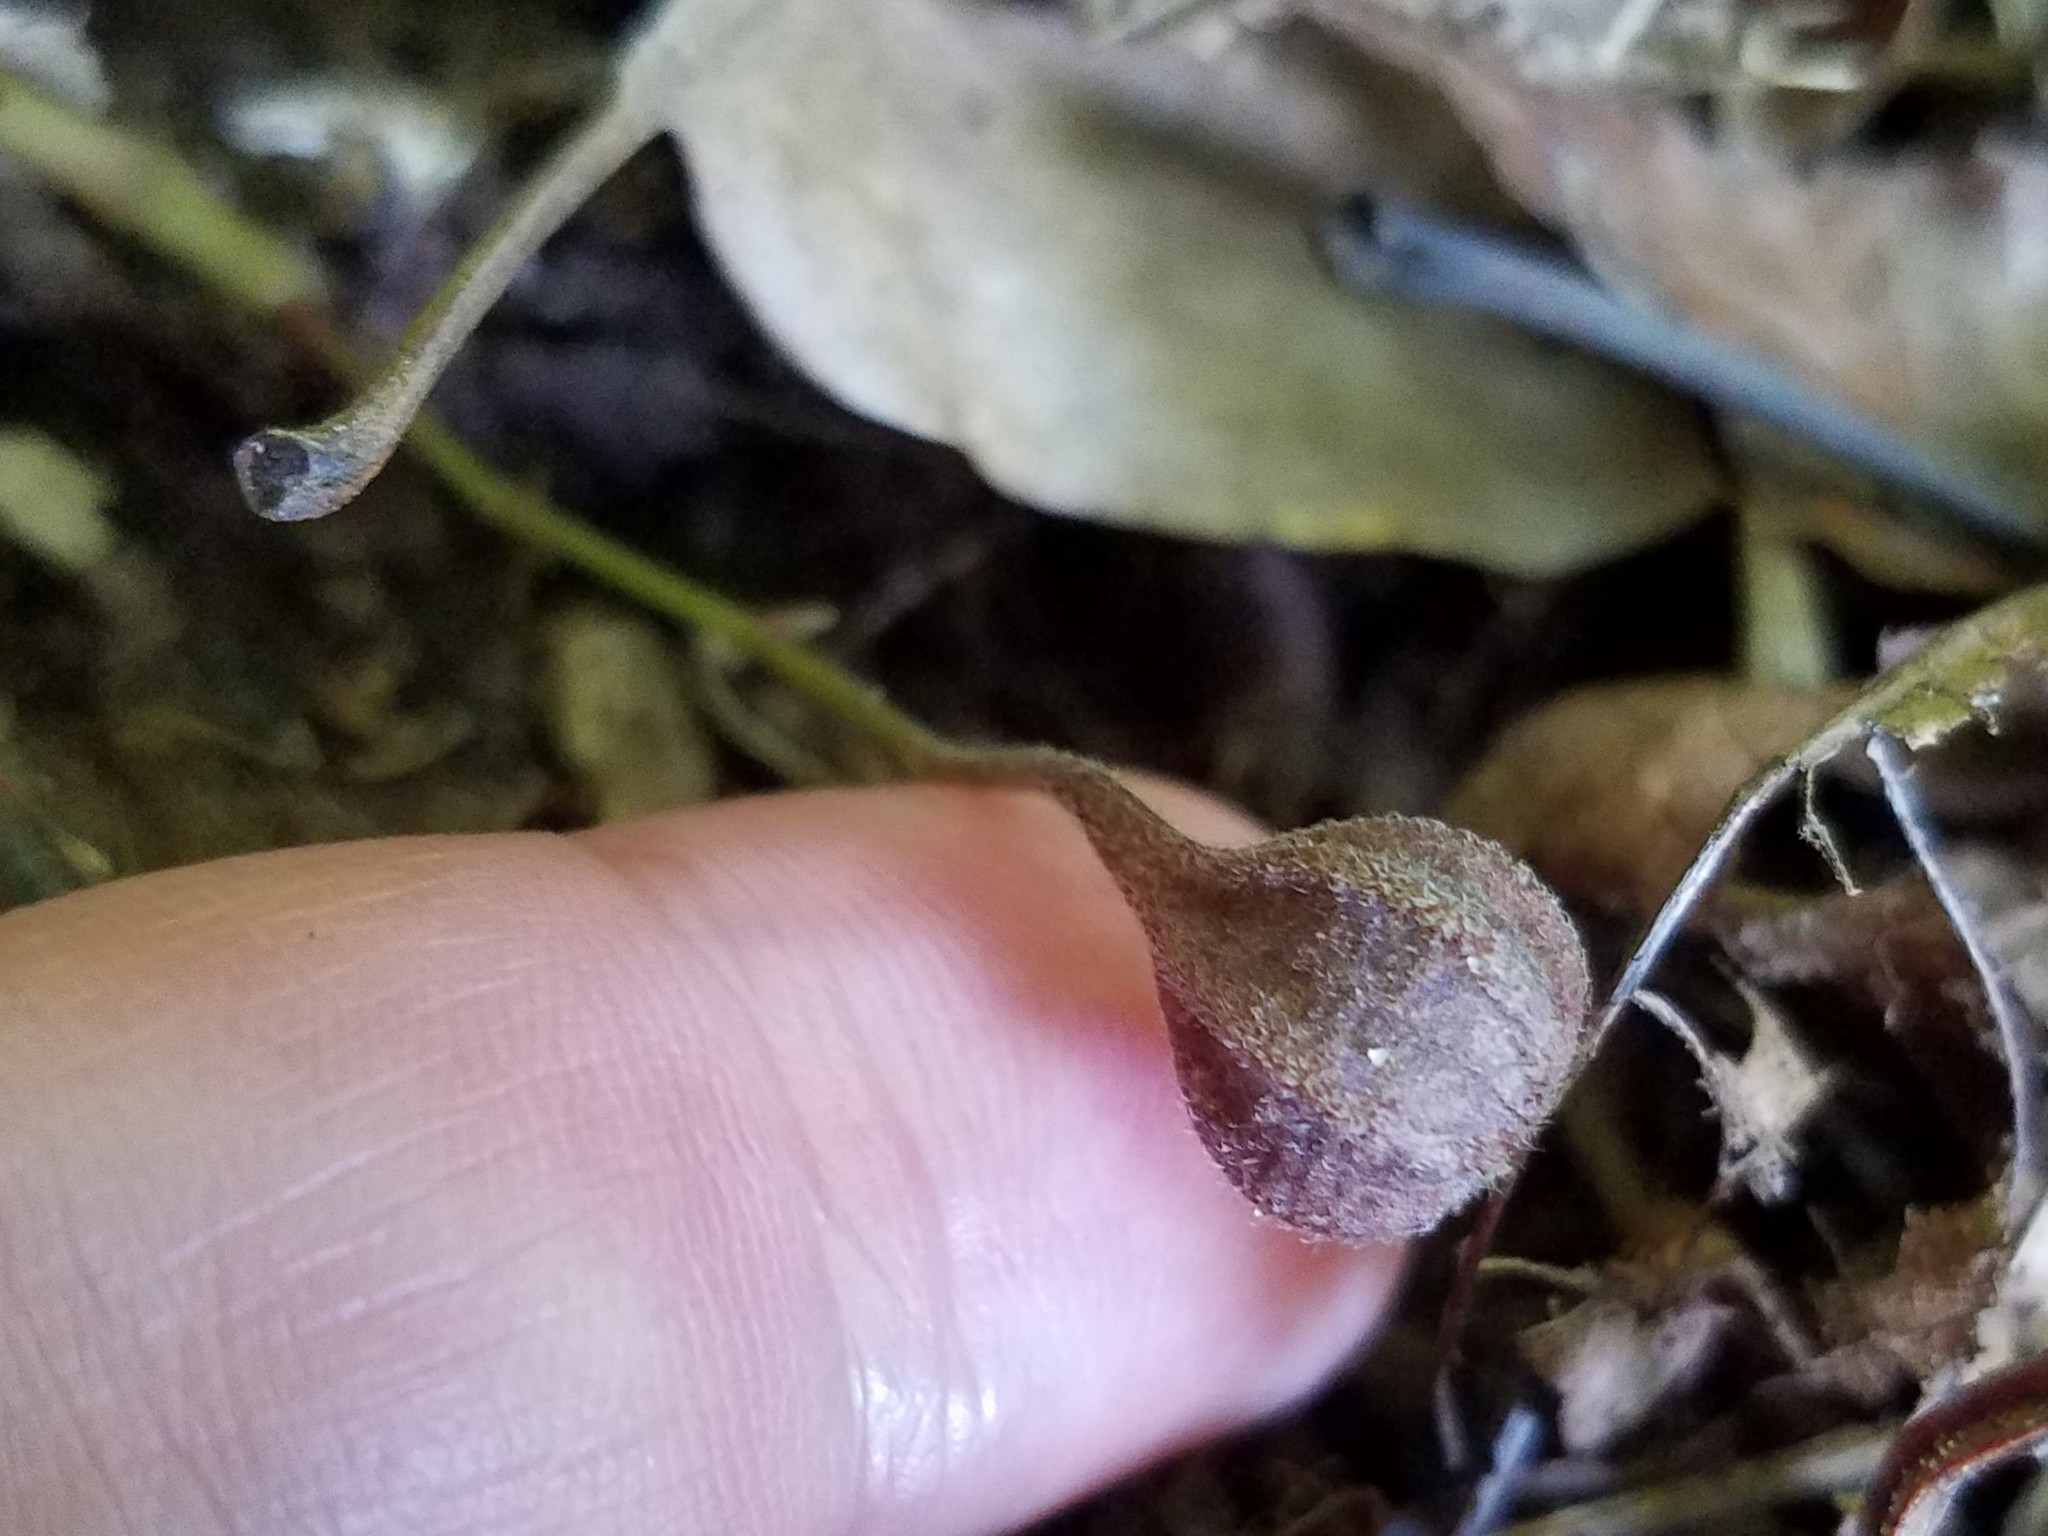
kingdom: Plantae
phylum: Tracheophyta
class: Magnoliopsida
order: Piperales
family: Aristolochiaceae
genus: Endodeca
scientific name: Endodeca serpentaria
